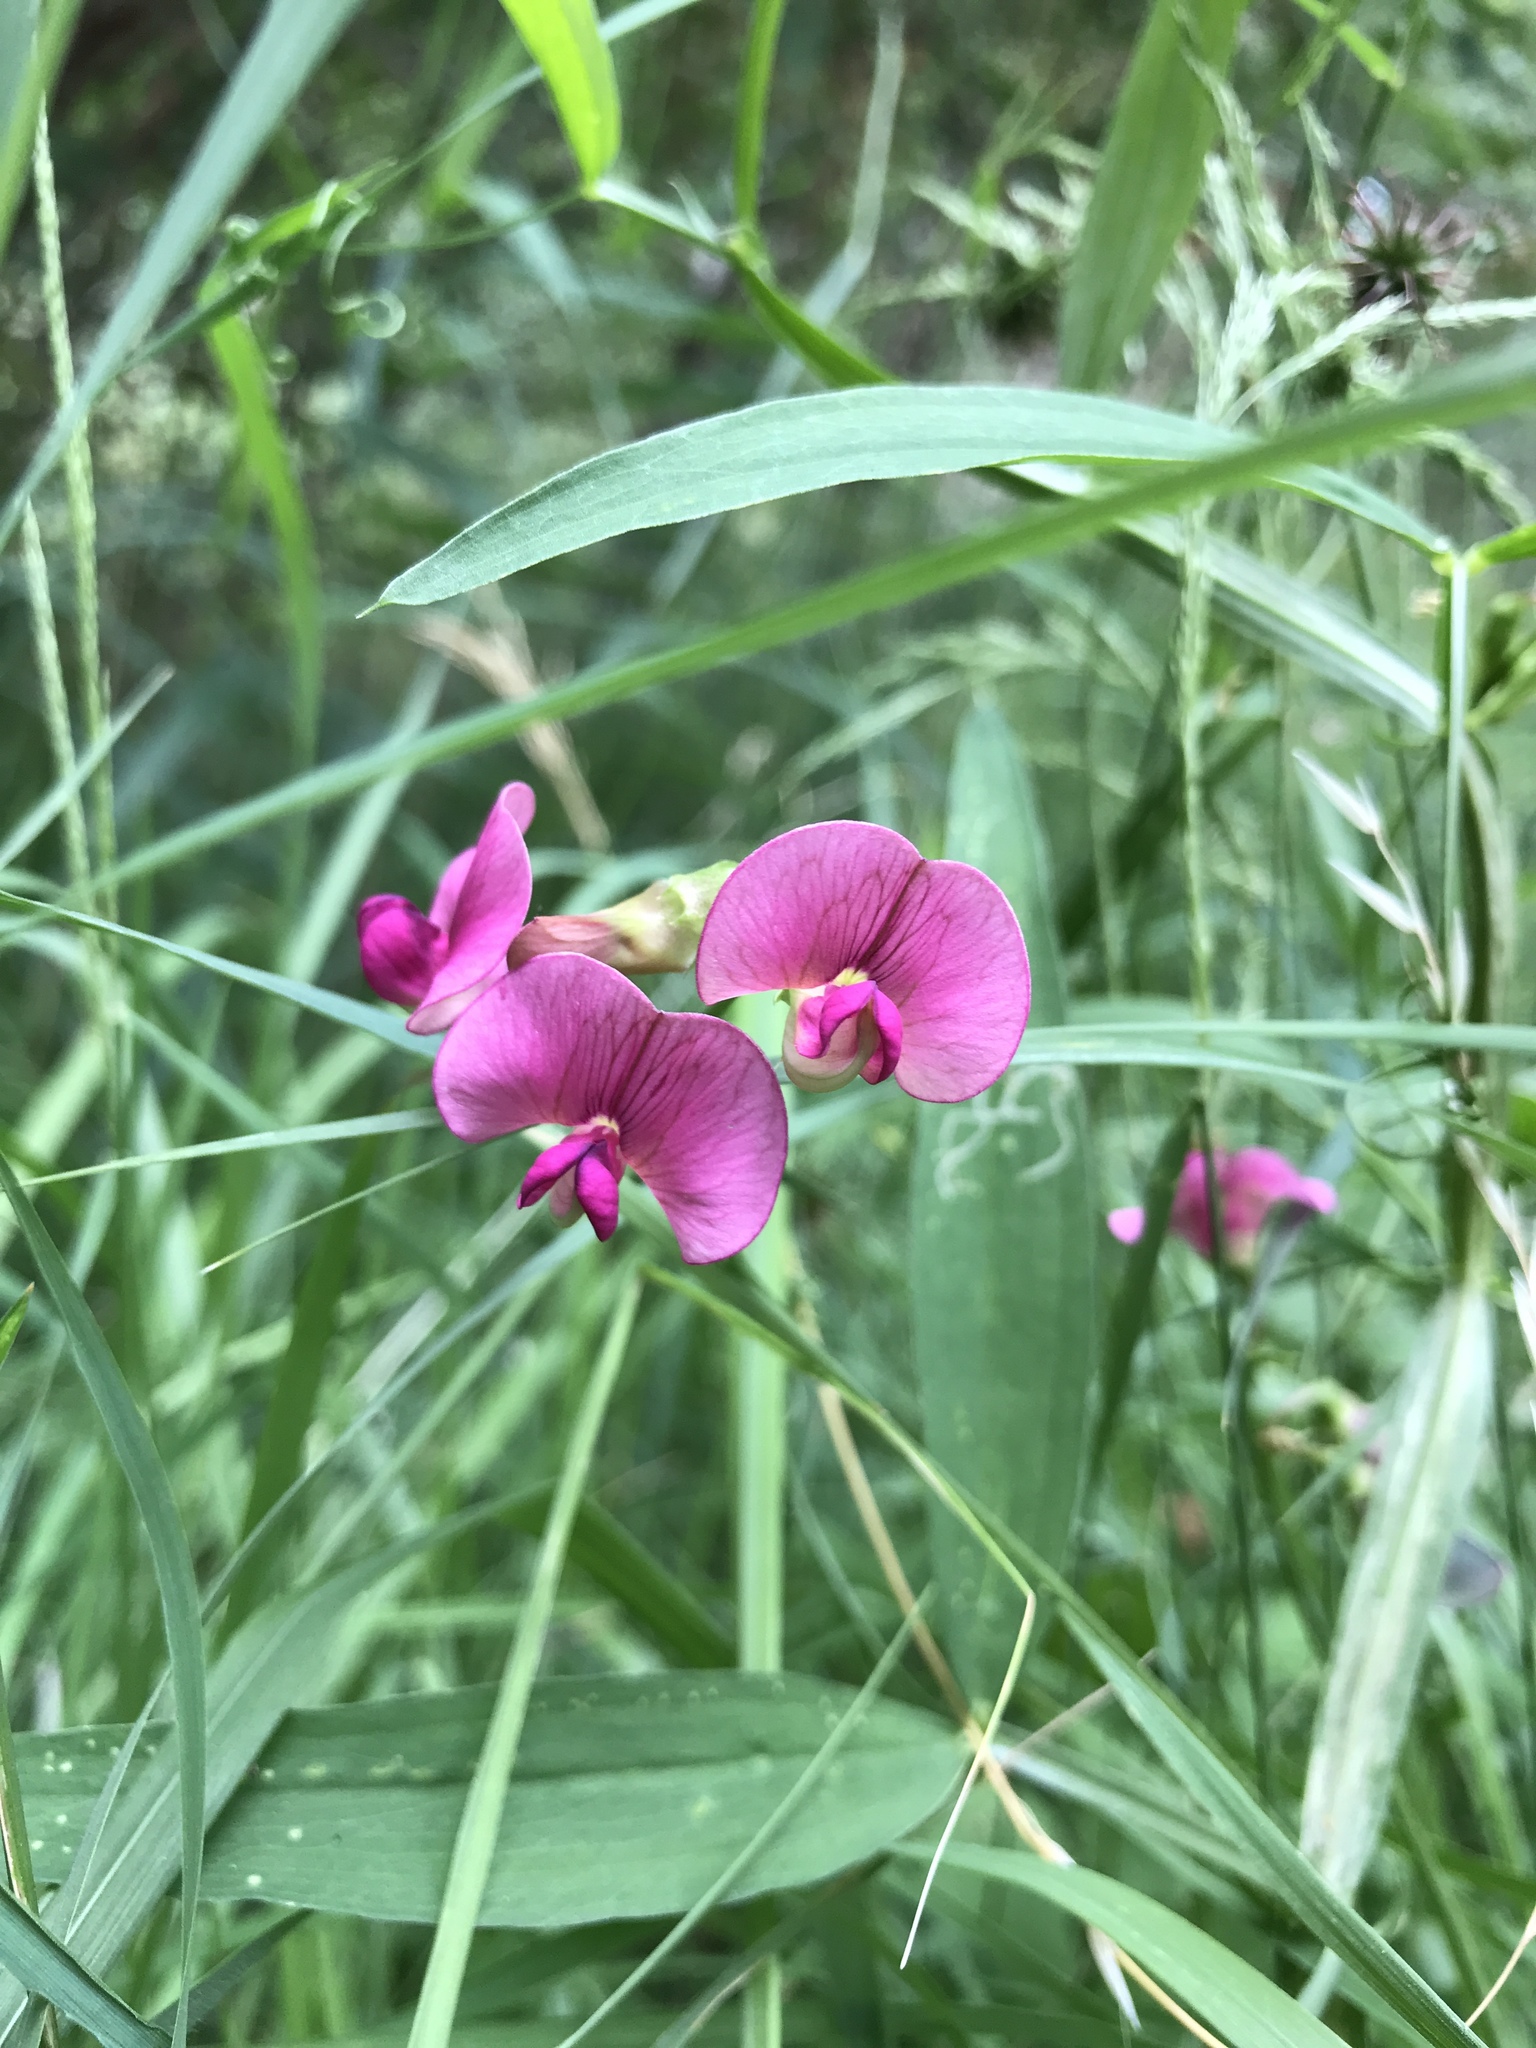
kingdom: Plantae
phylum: Tracheophyta
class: Magnoliopsida
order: Fabales
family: Fabaceae
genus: Lathyrus
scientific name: Lathyrus sylvestris
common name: Flat pea
